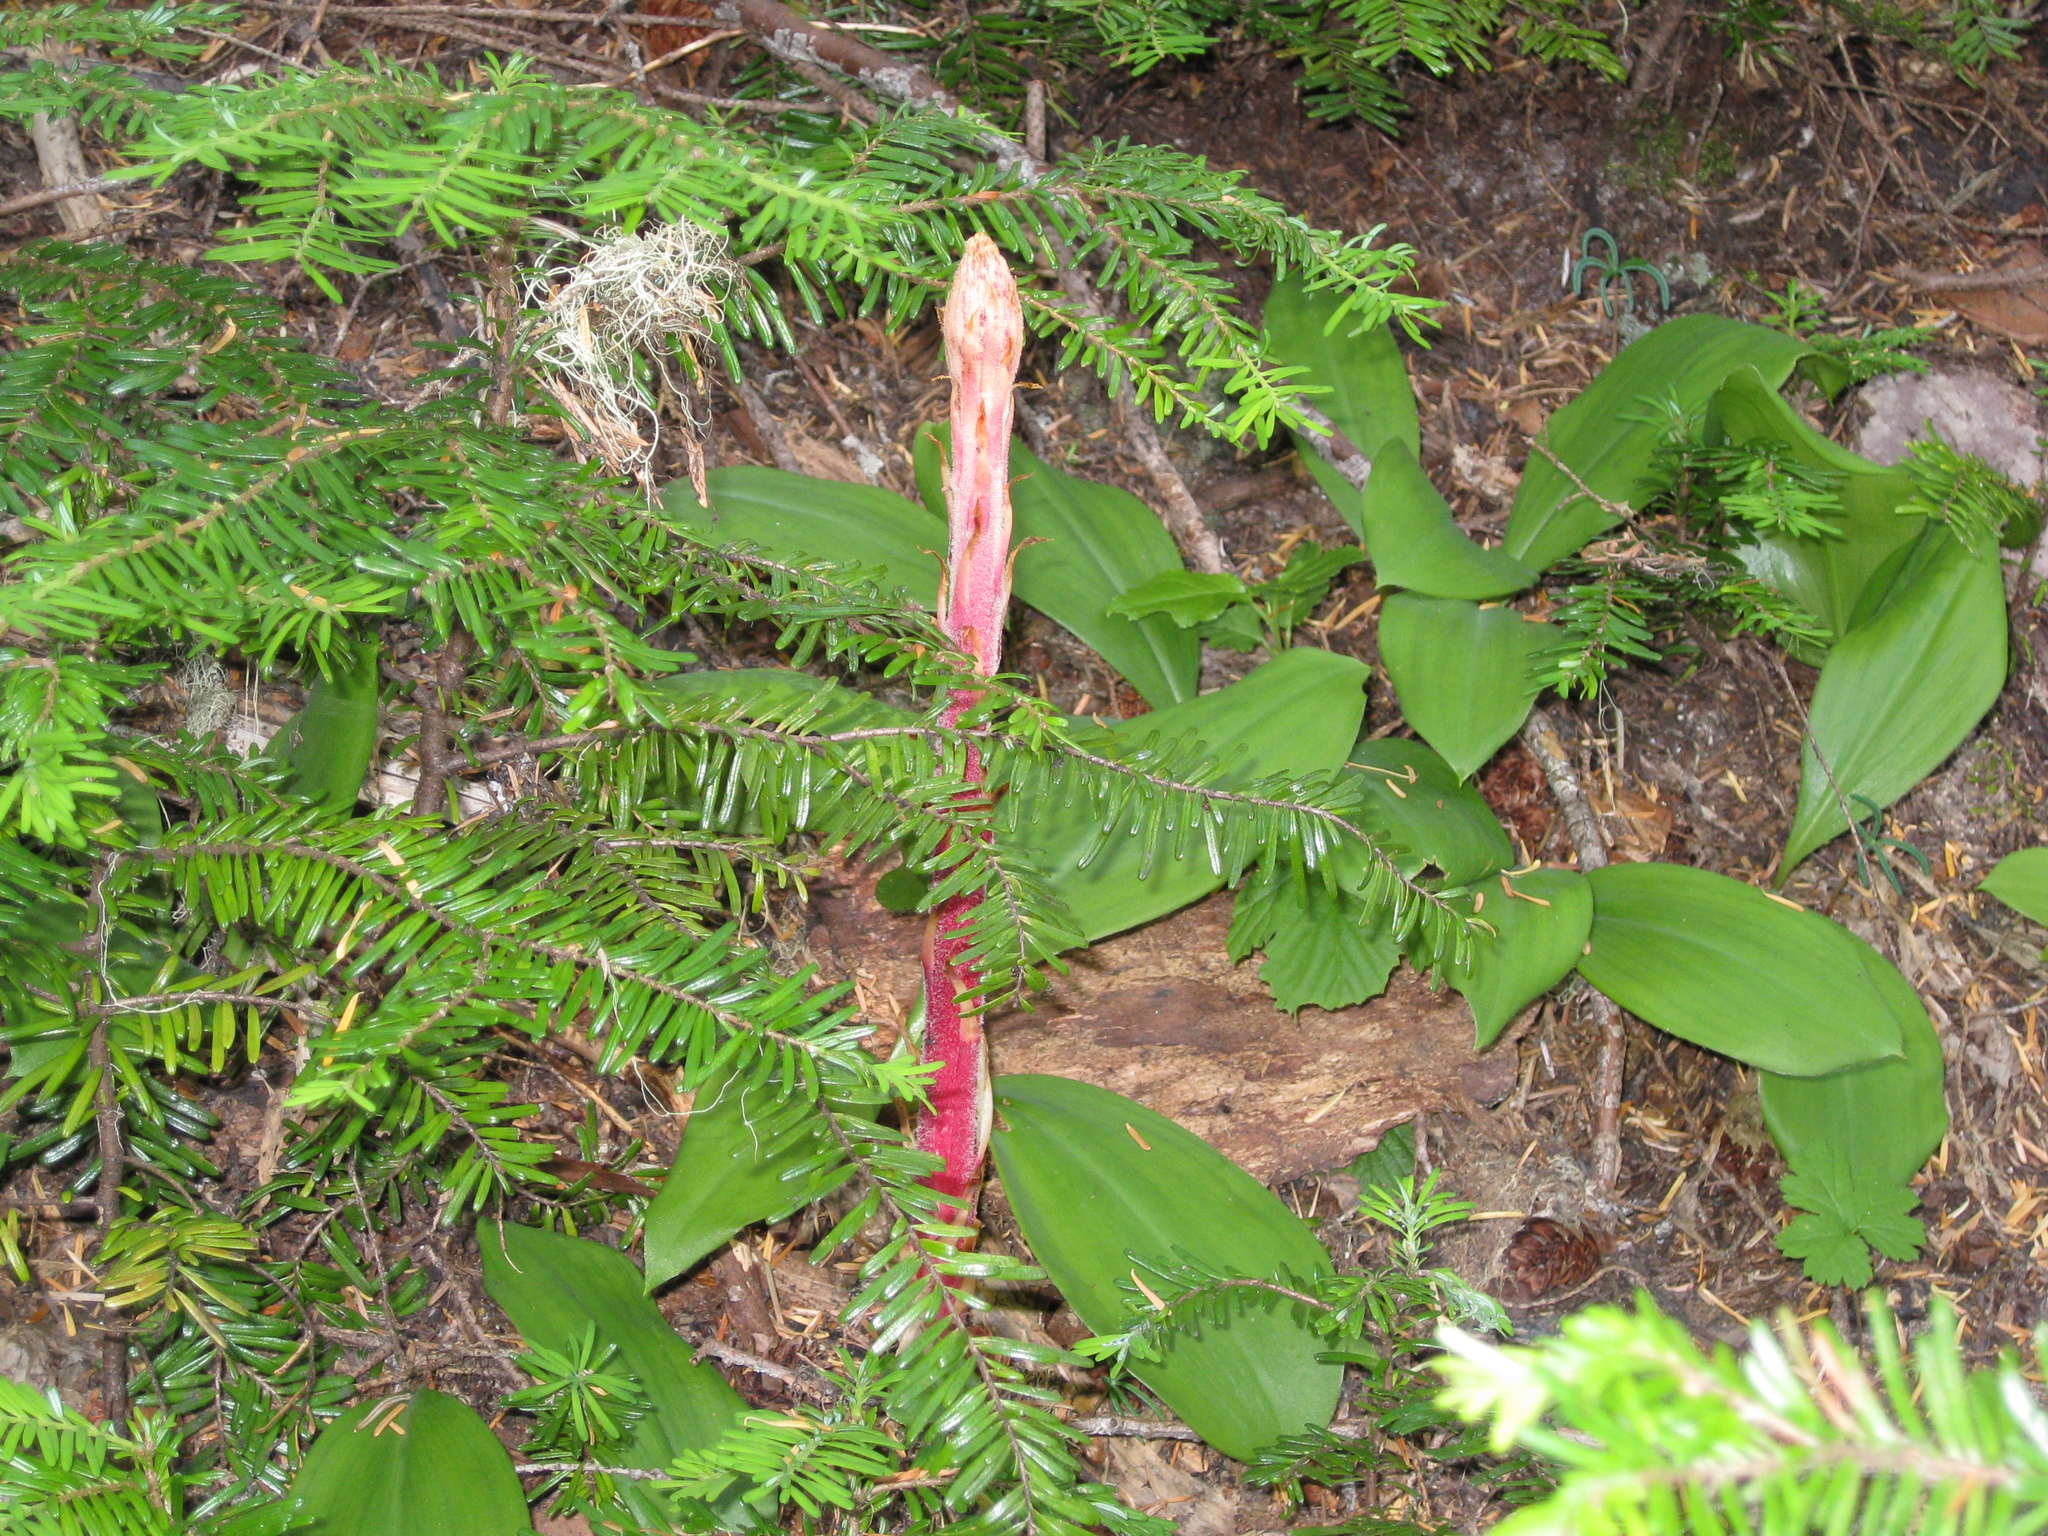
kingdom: Plantae
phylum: Tracheophyta
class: Magnoliopsida
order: Ericales
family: Ericaceae
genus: Pterospora
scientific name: Pterospora andromedea
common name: Giant bird's-nest
